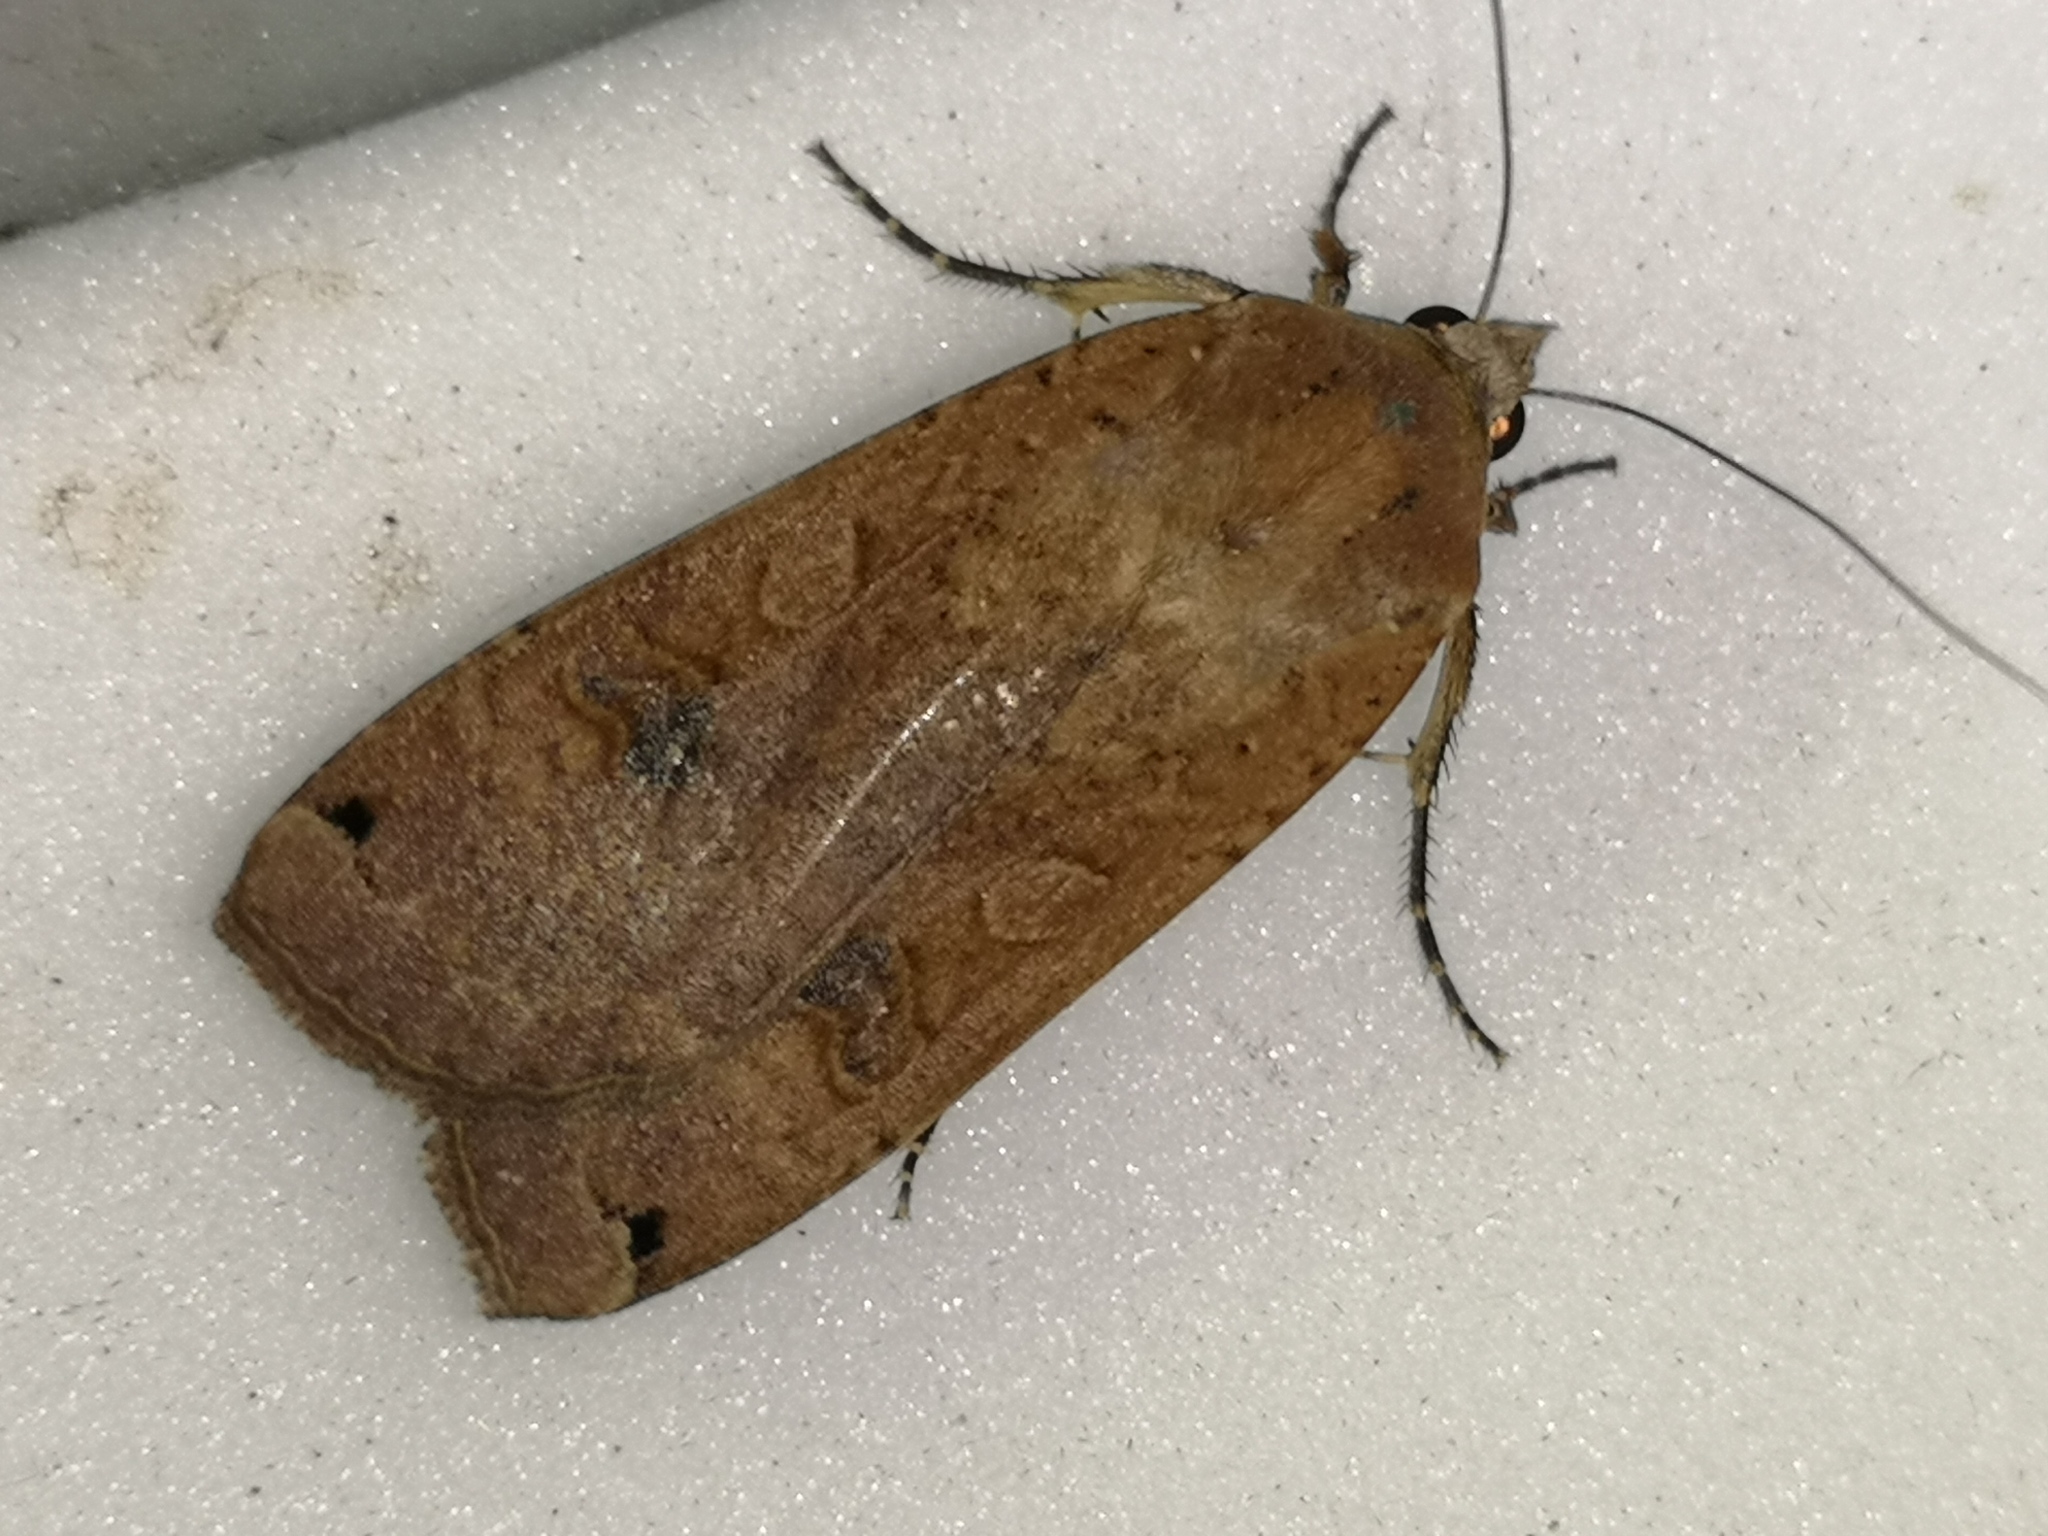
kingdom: Animalia
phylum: Arthropoda
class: Insecta
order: Lepidoptera
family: Noctuidae
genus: Noctua
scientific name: Noctua pronuba
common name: Large yellow underwing
